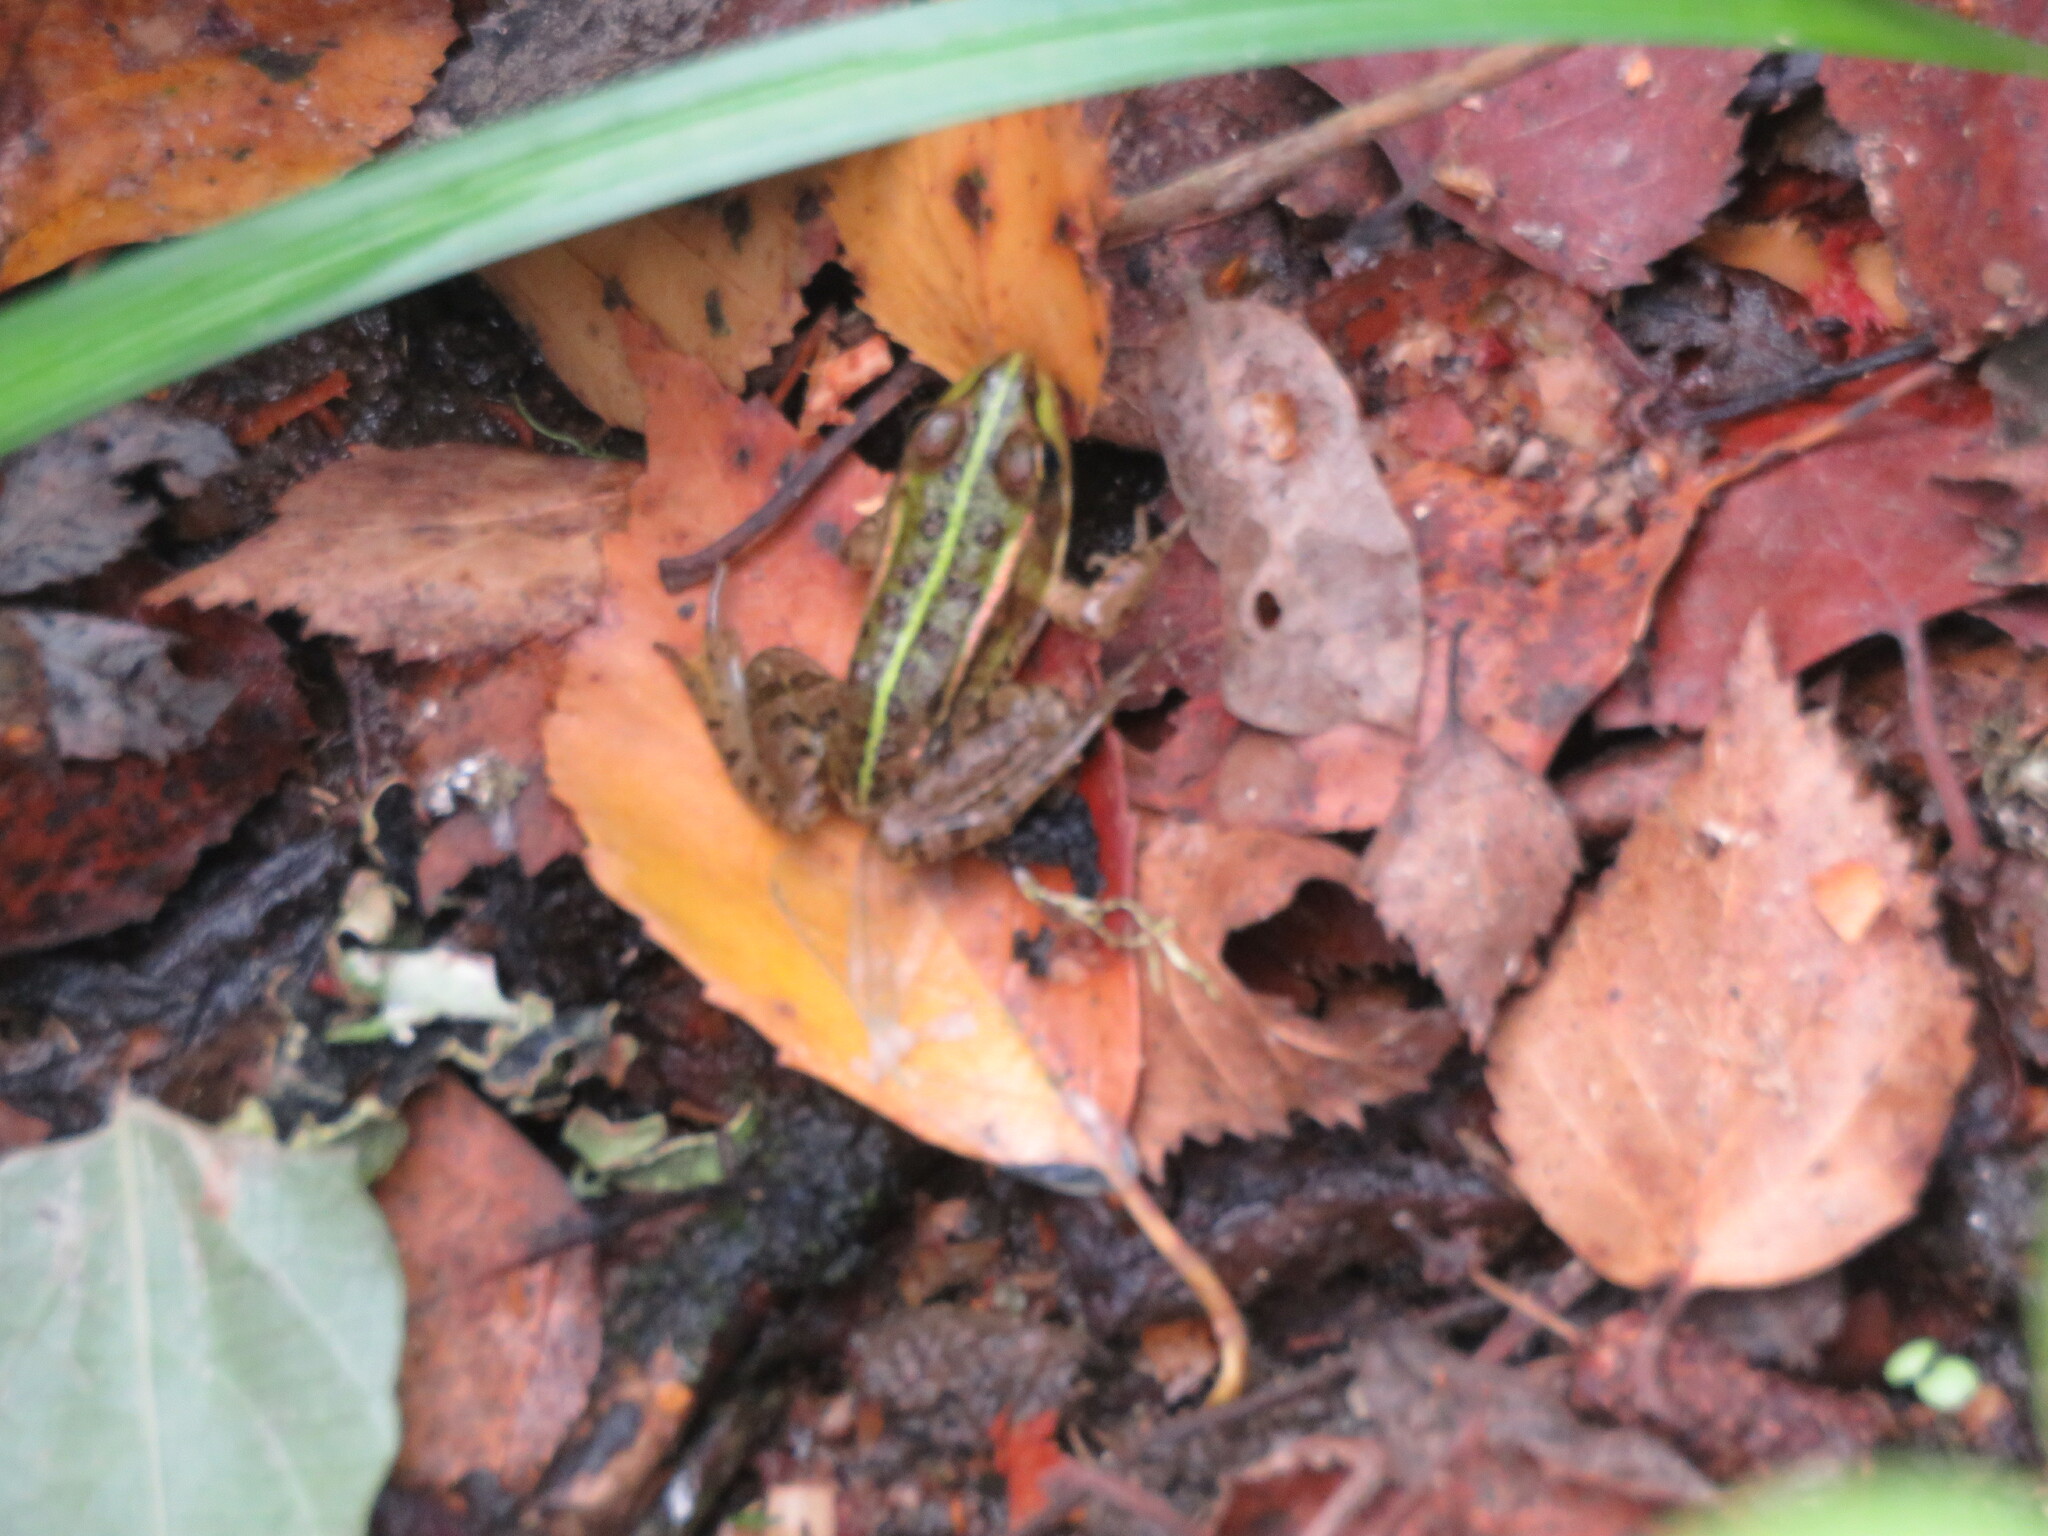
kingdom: Animalia
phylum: Chordata
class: Amphibia
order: Anura
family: Ranidae
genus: Pelophylax
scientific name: Pelophylax perezi
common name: Perez's frog
